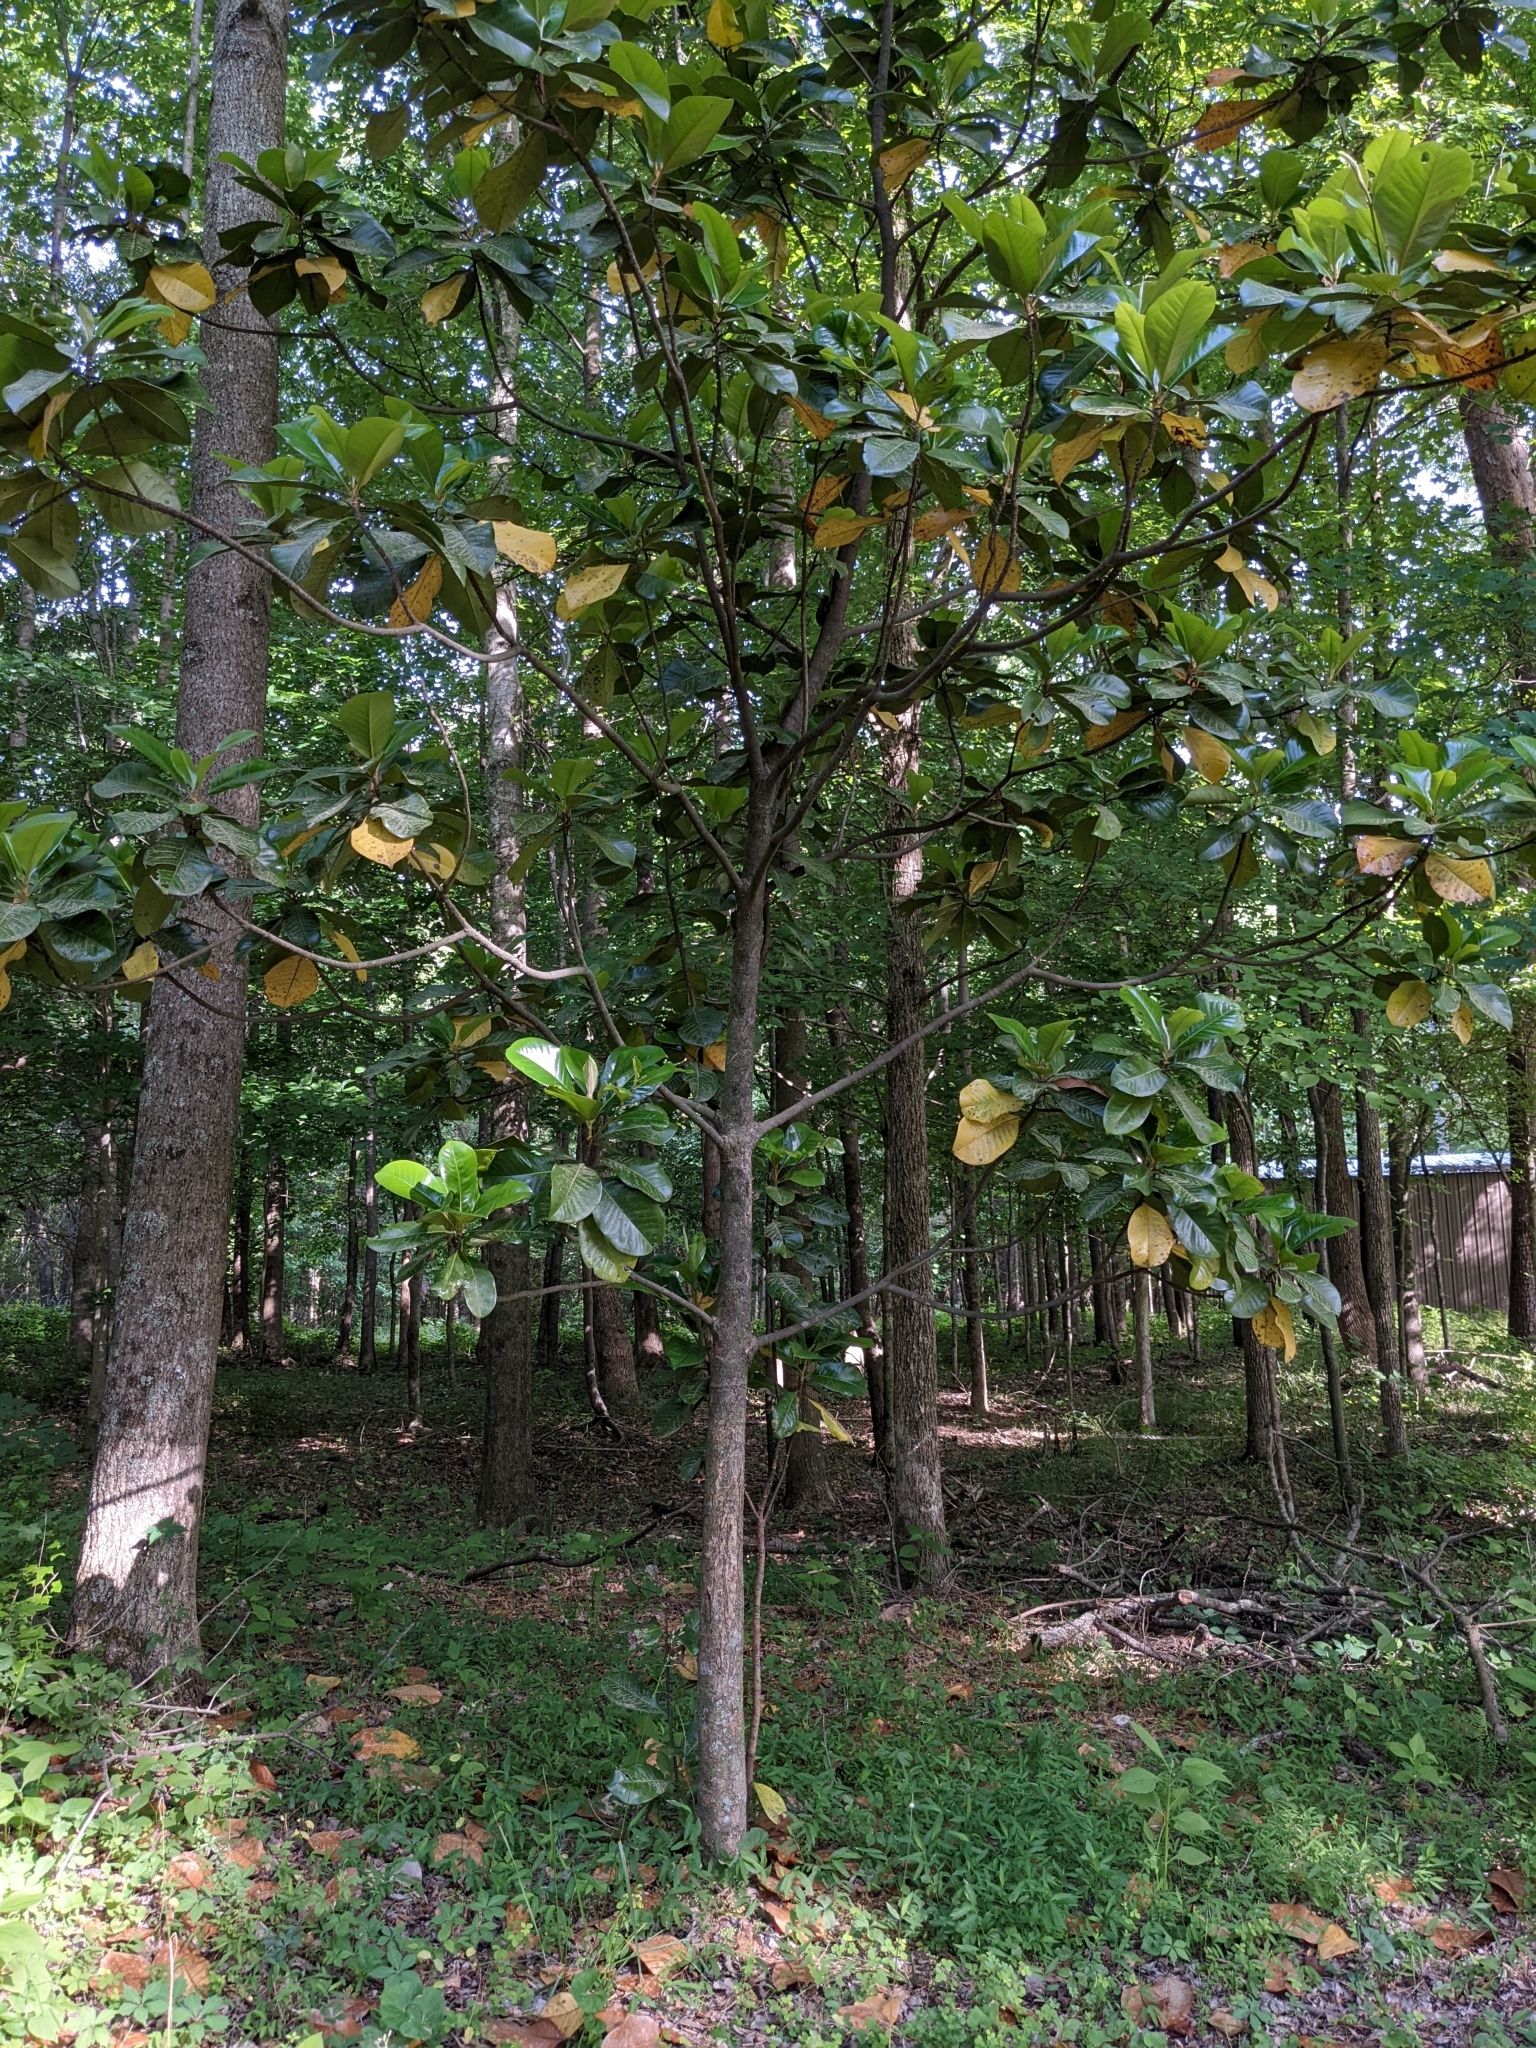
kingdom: Plantae
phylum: Tracheophyta
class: Magnoliopsida
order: Magnoliales
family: Magnoliaceae
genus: Magnolia
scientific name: Magnolia grandiflora
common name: Southern magnolia
